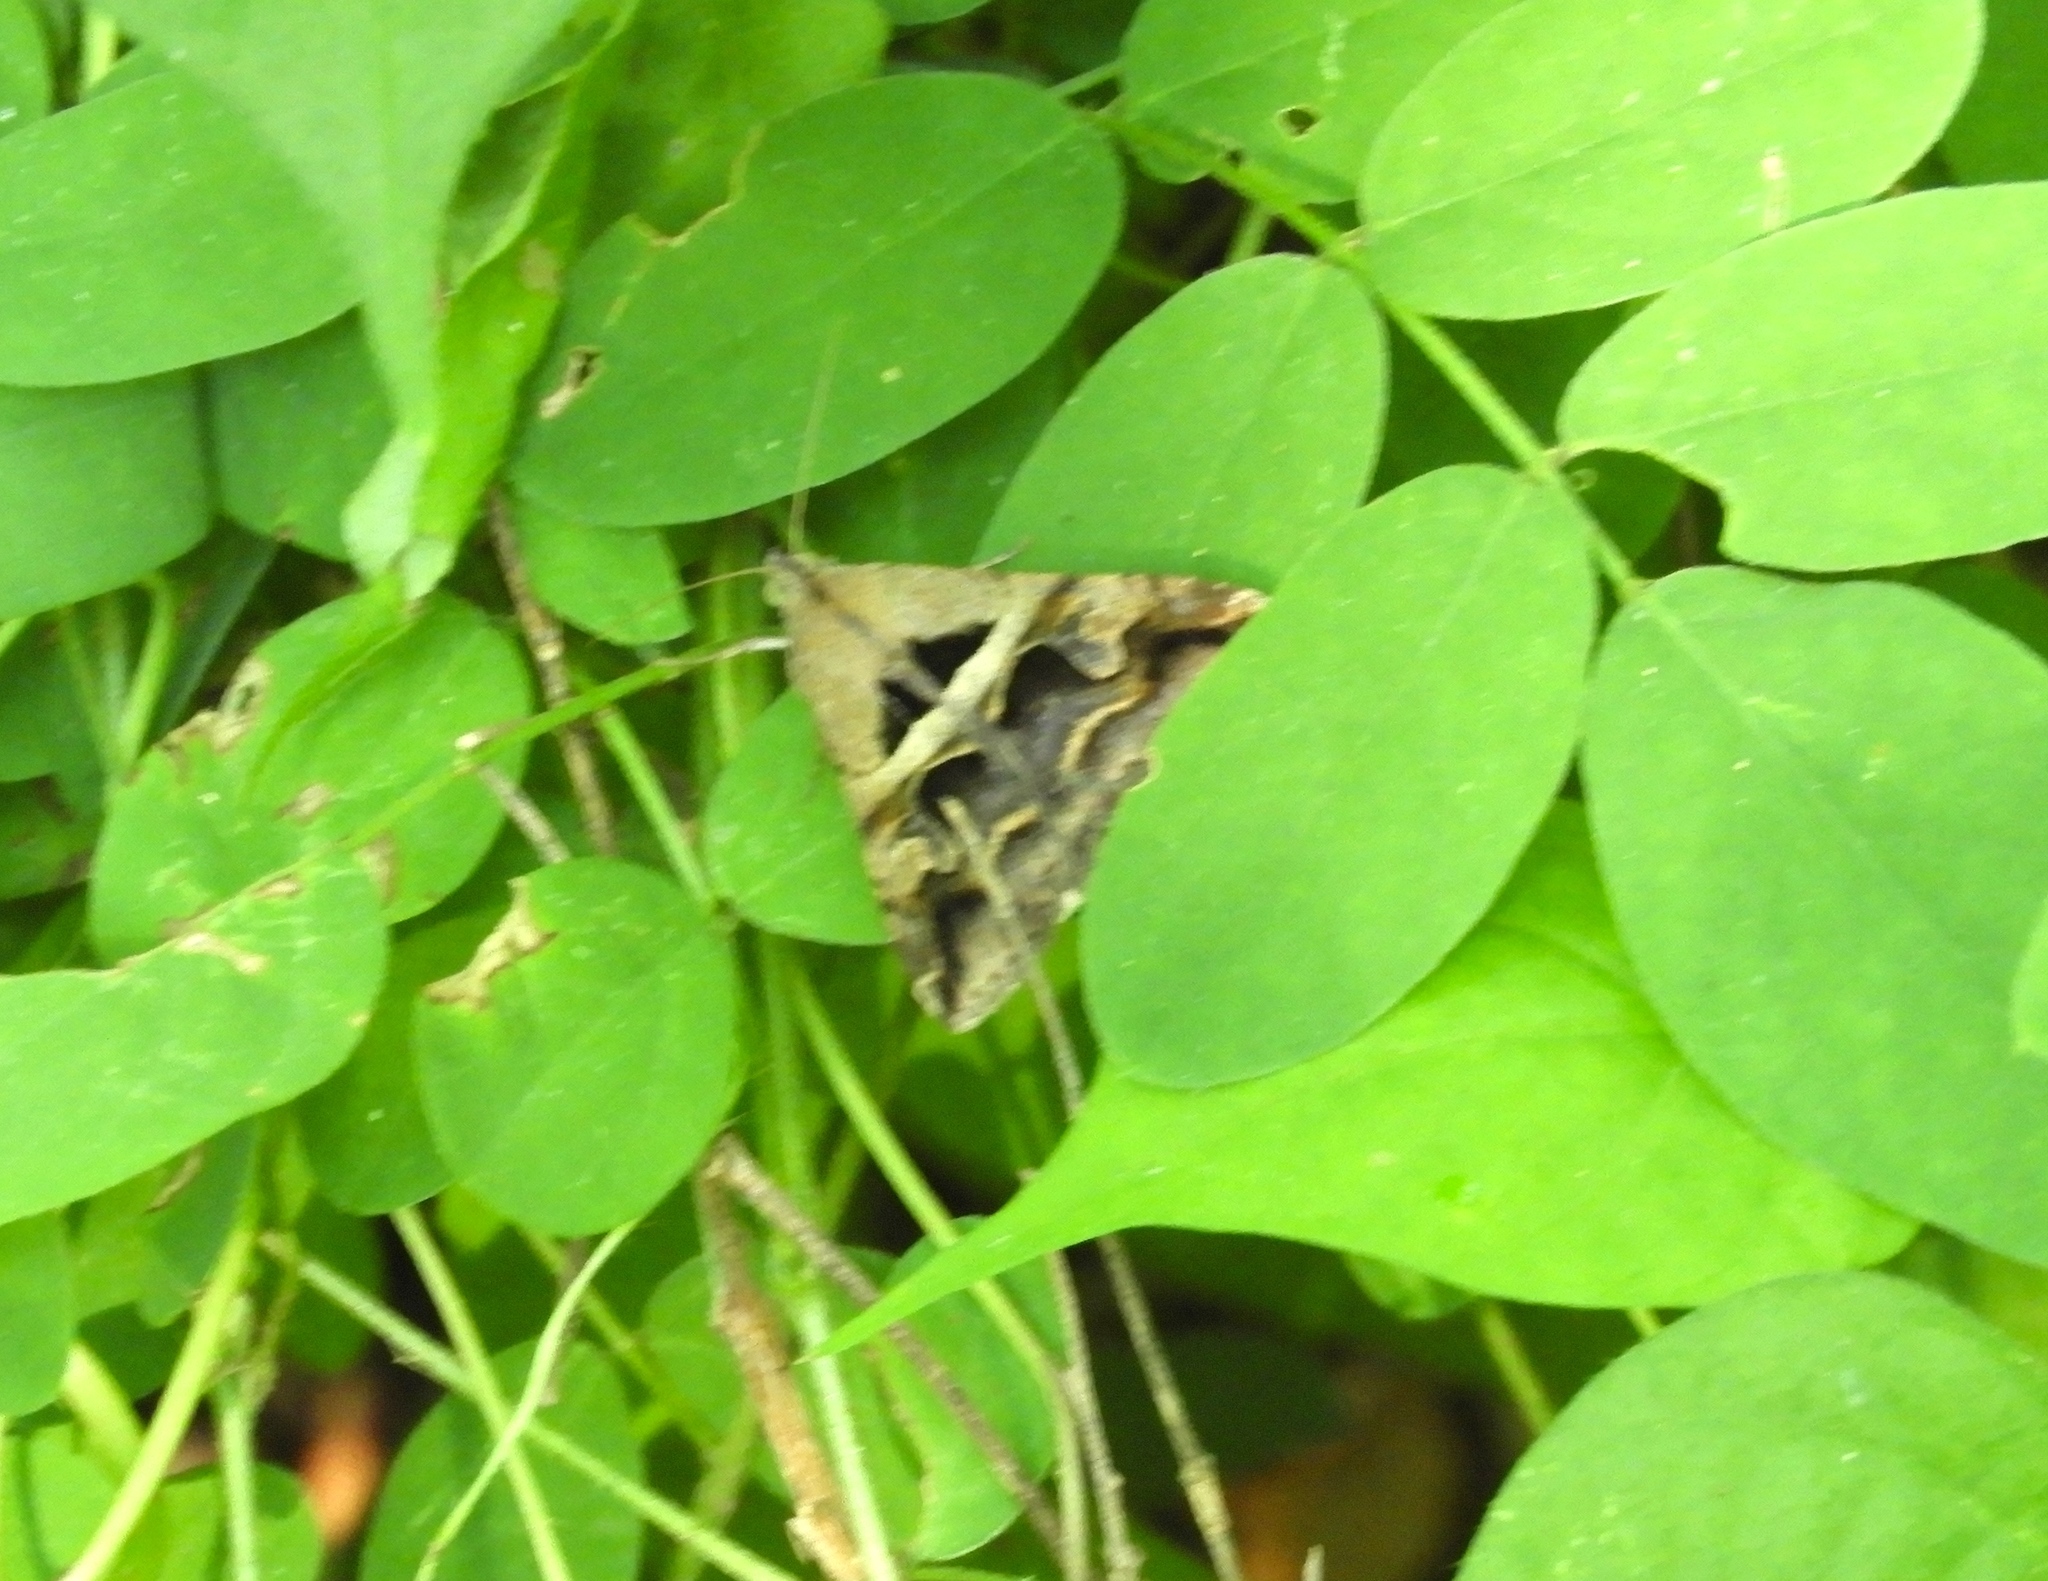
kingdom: Animalia
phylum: Arthropoda
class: Insecta
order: Lepidoptera
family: Erebidae
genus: Melipotis
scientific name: Melipotis cellaris
